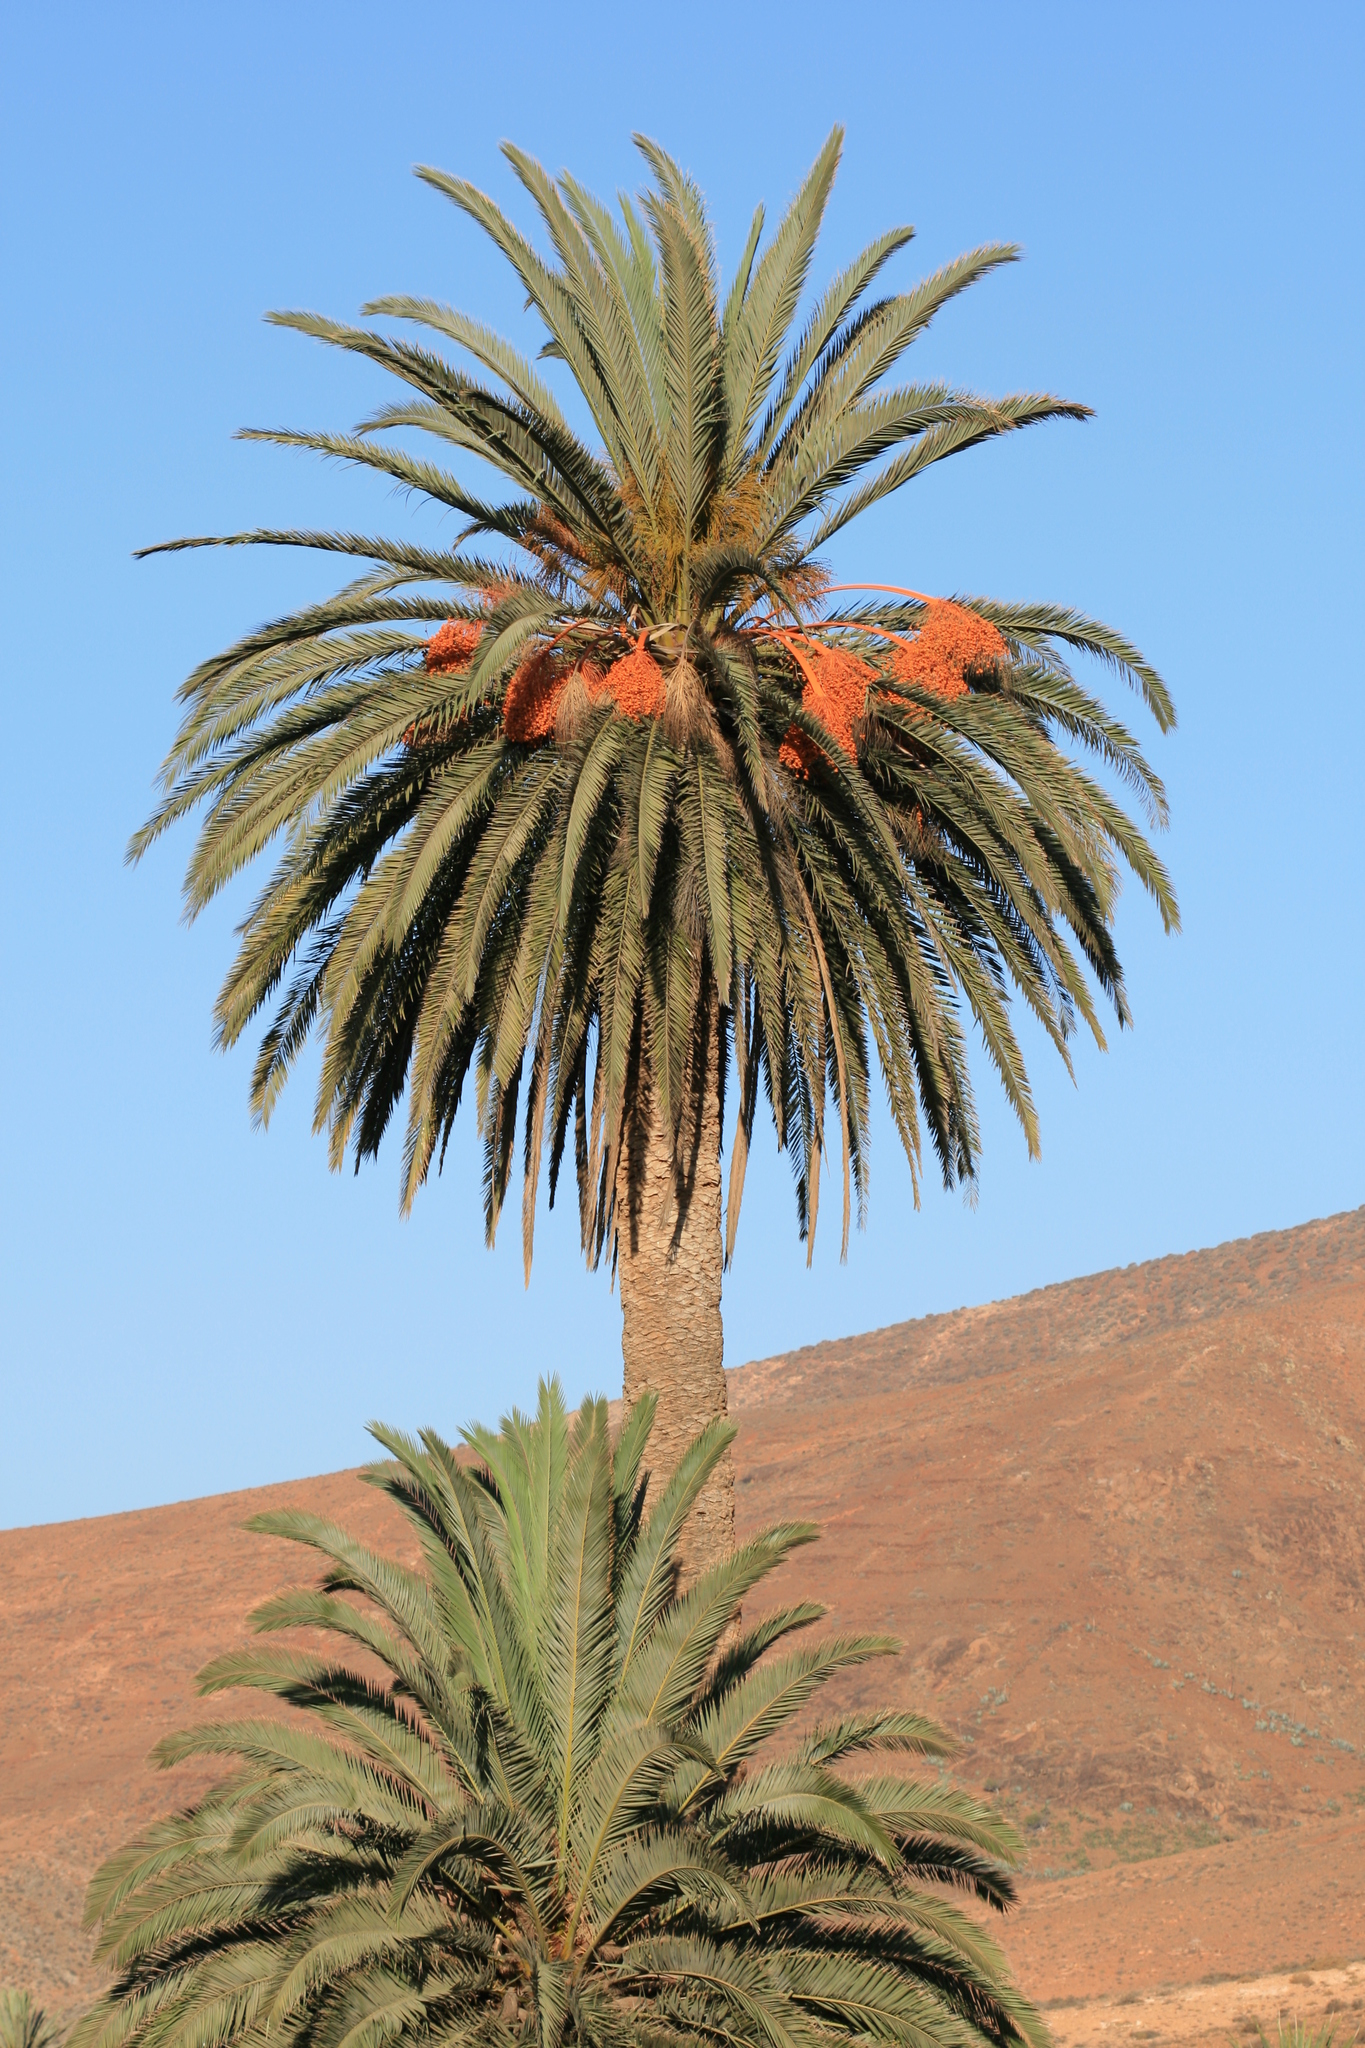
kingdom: Plantae
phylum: Tracheophyta
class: Liliopsida
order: Arecales
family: Arecaceae
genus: Phoenix
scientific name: Phoenix canariensis
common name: Canary island date palm
